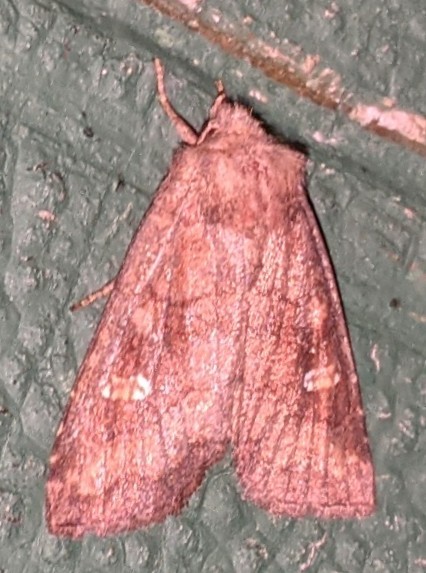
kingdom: Animalia
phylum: Arthropoda
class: Insecta
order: Lepidoptera
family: Noctuidae
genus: Tricholita
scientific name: Tricholita signata
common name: Signate quaker
